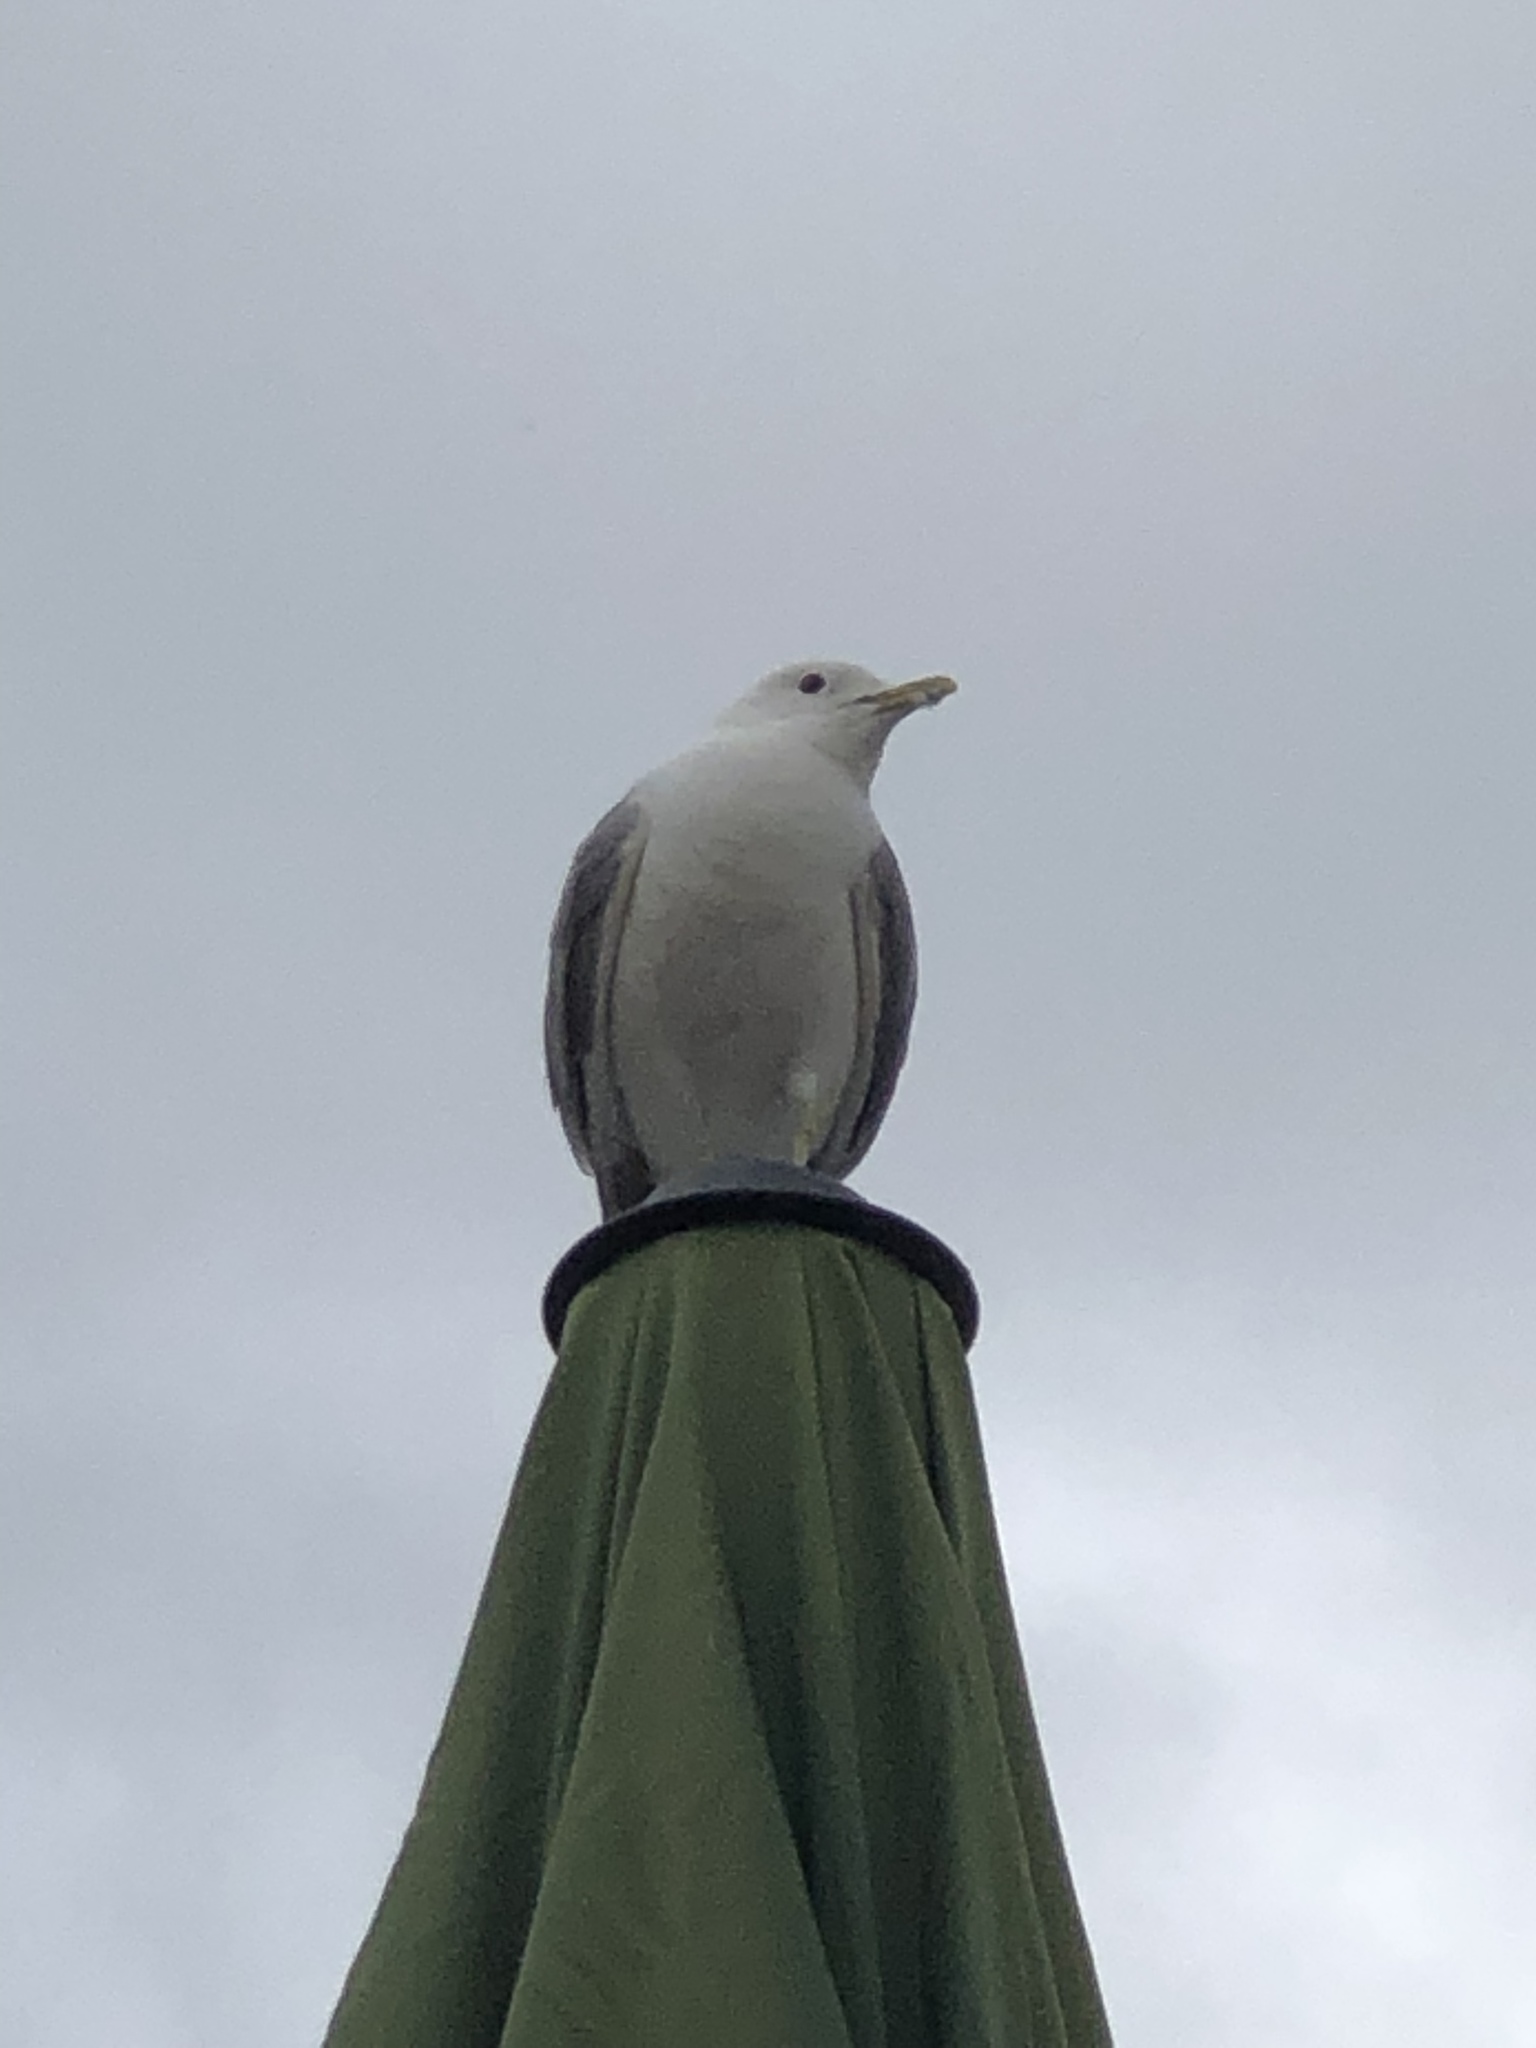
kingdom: Animalia
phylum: Chordata
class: Aves
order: Charadriiformes
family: Laridae
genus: Larus
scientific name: Larus canus
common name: Mew gull
